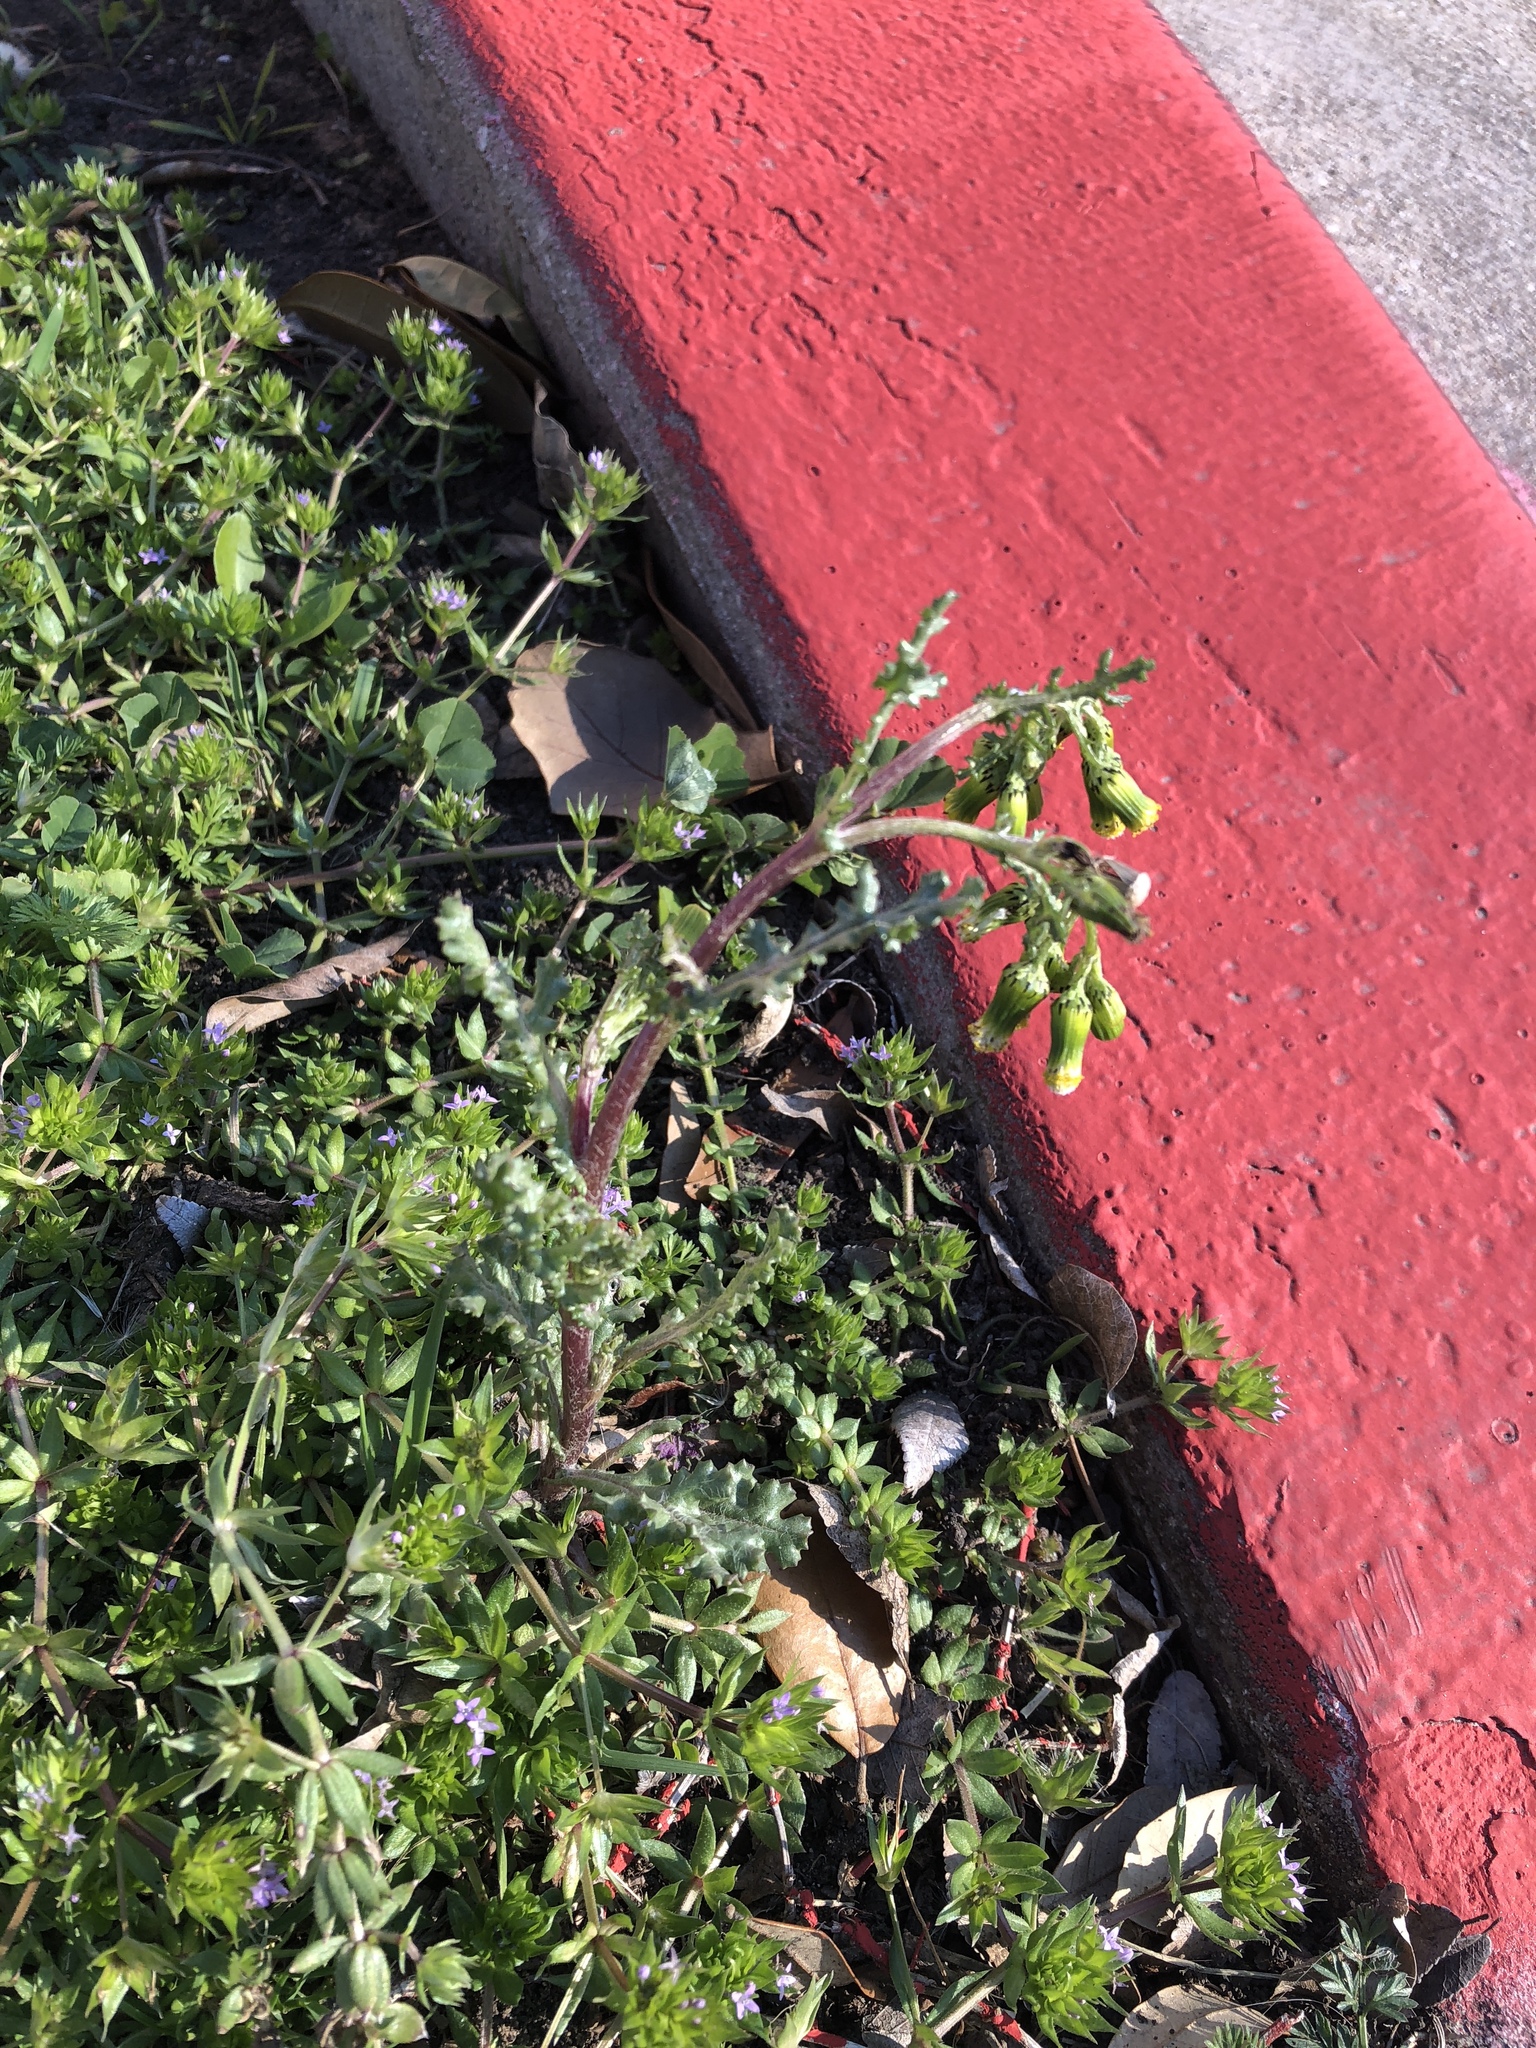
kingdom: Plantae
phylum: Tracheophyta
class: Magnoliopsida
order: Asterales
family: Asteraceae
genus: Senecio
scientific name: Senecio vulgaris
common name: Old-man-in-the-spring
